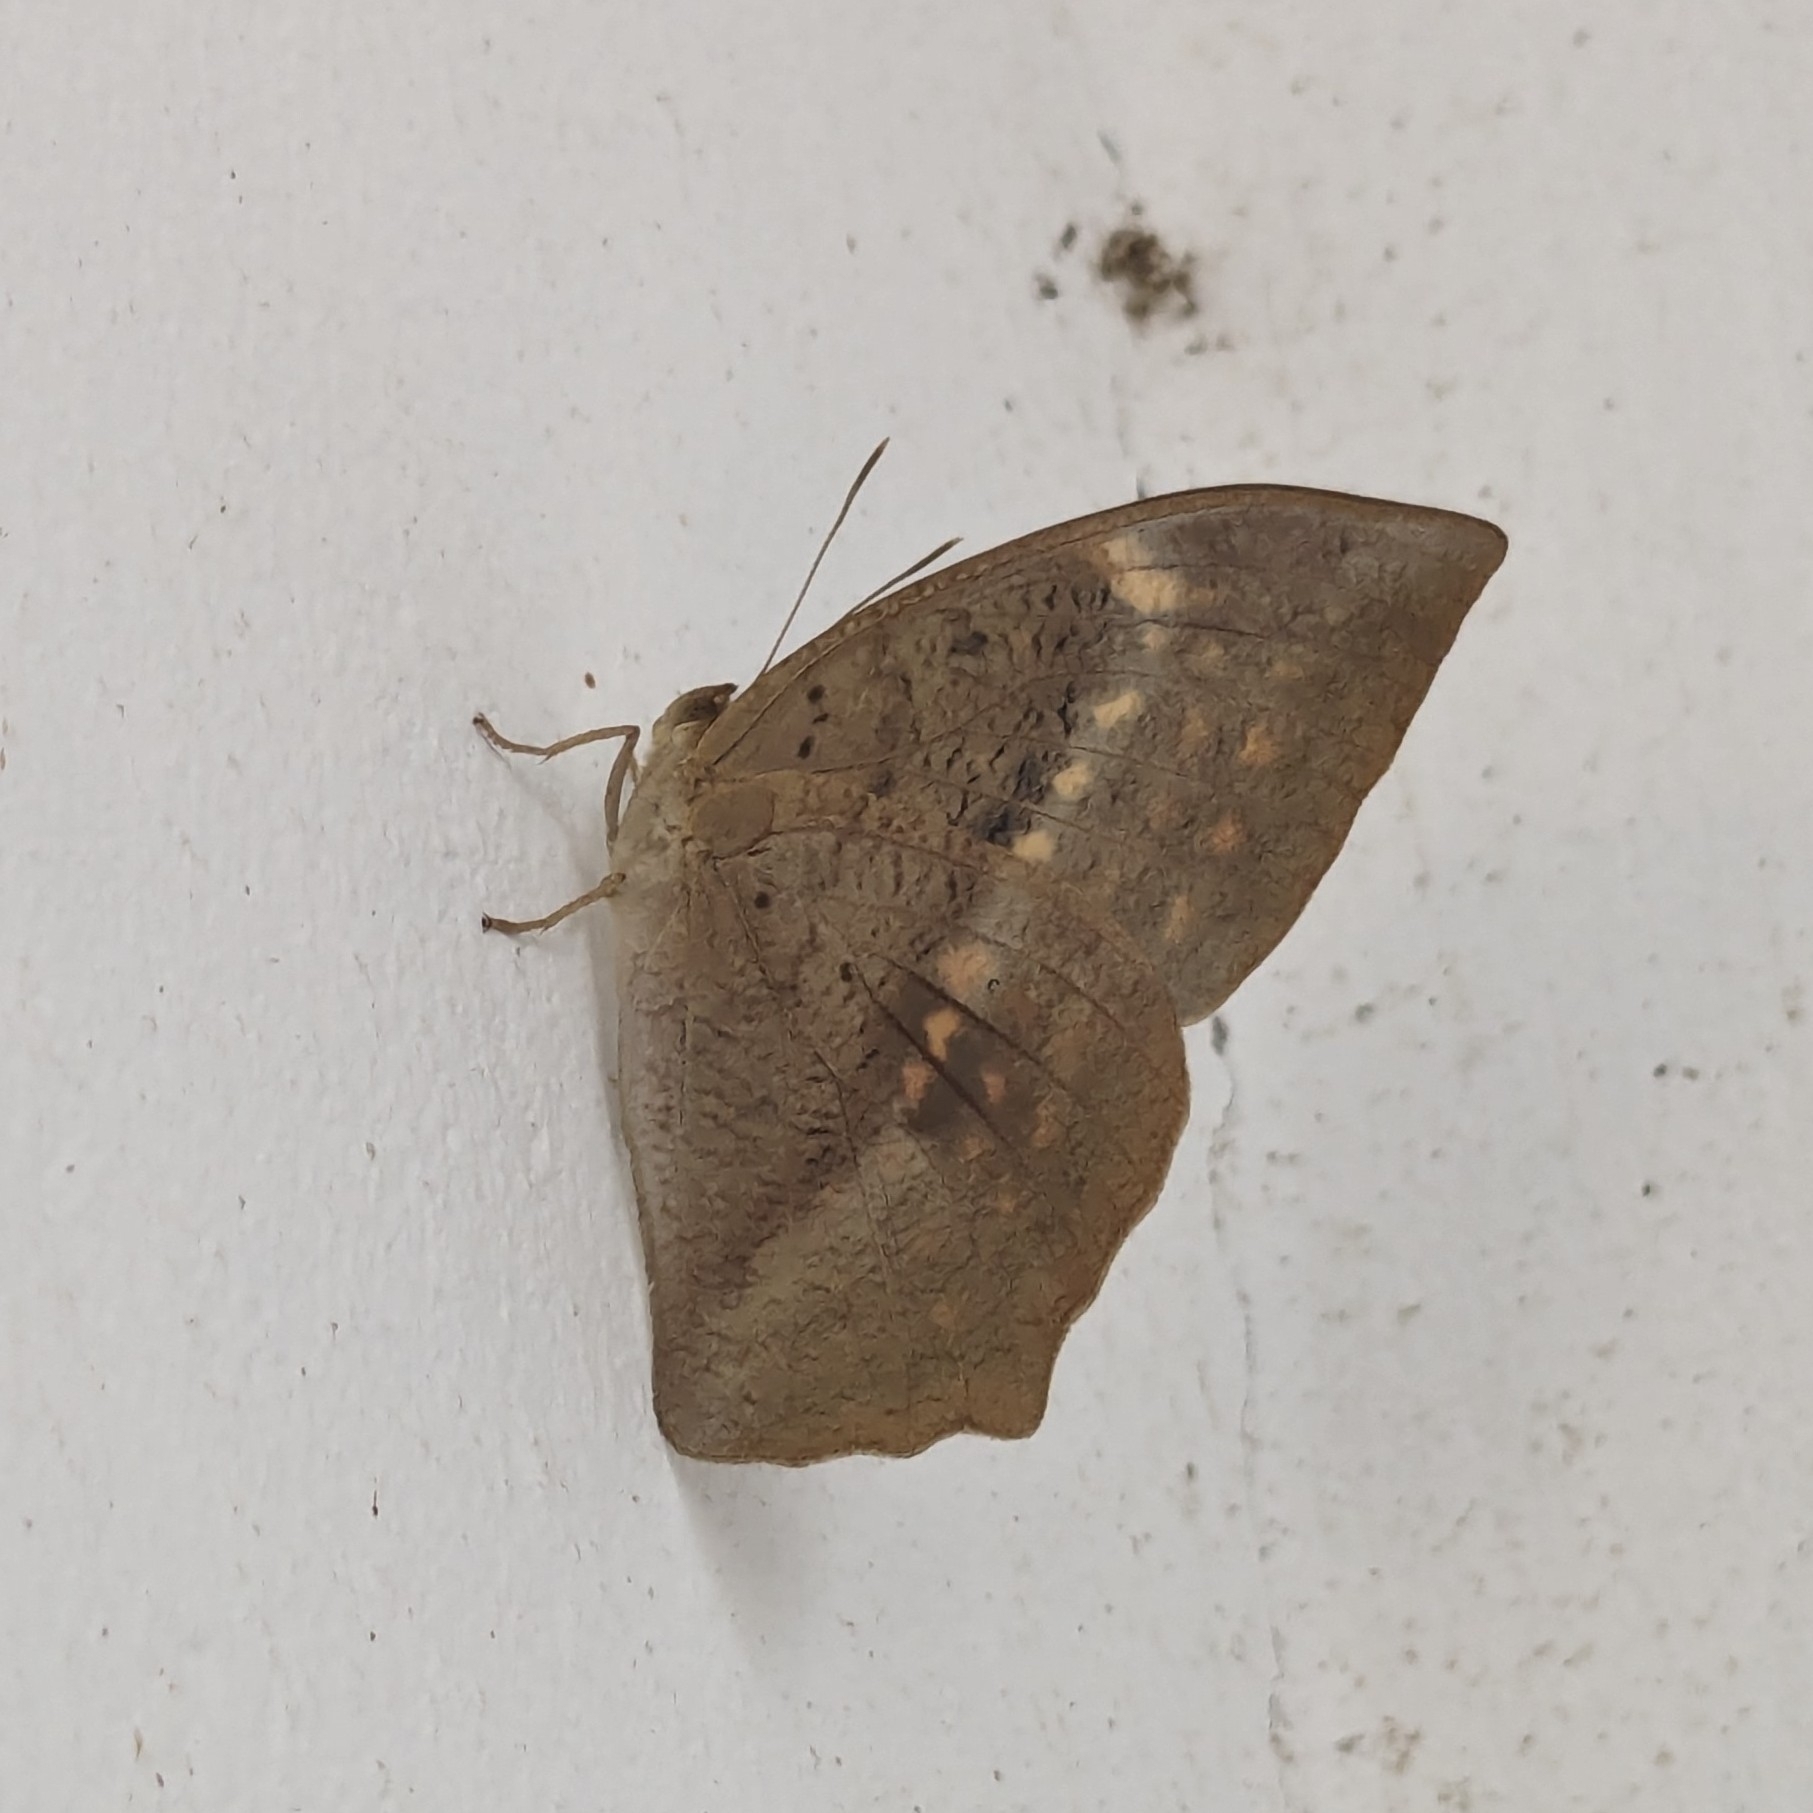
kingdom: Animalia
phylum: Arthropoda
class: Insecta
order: Lepidoptera
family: Nymphalidae
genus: Discophora
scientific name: Discophora sondaica
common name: Common duffer
